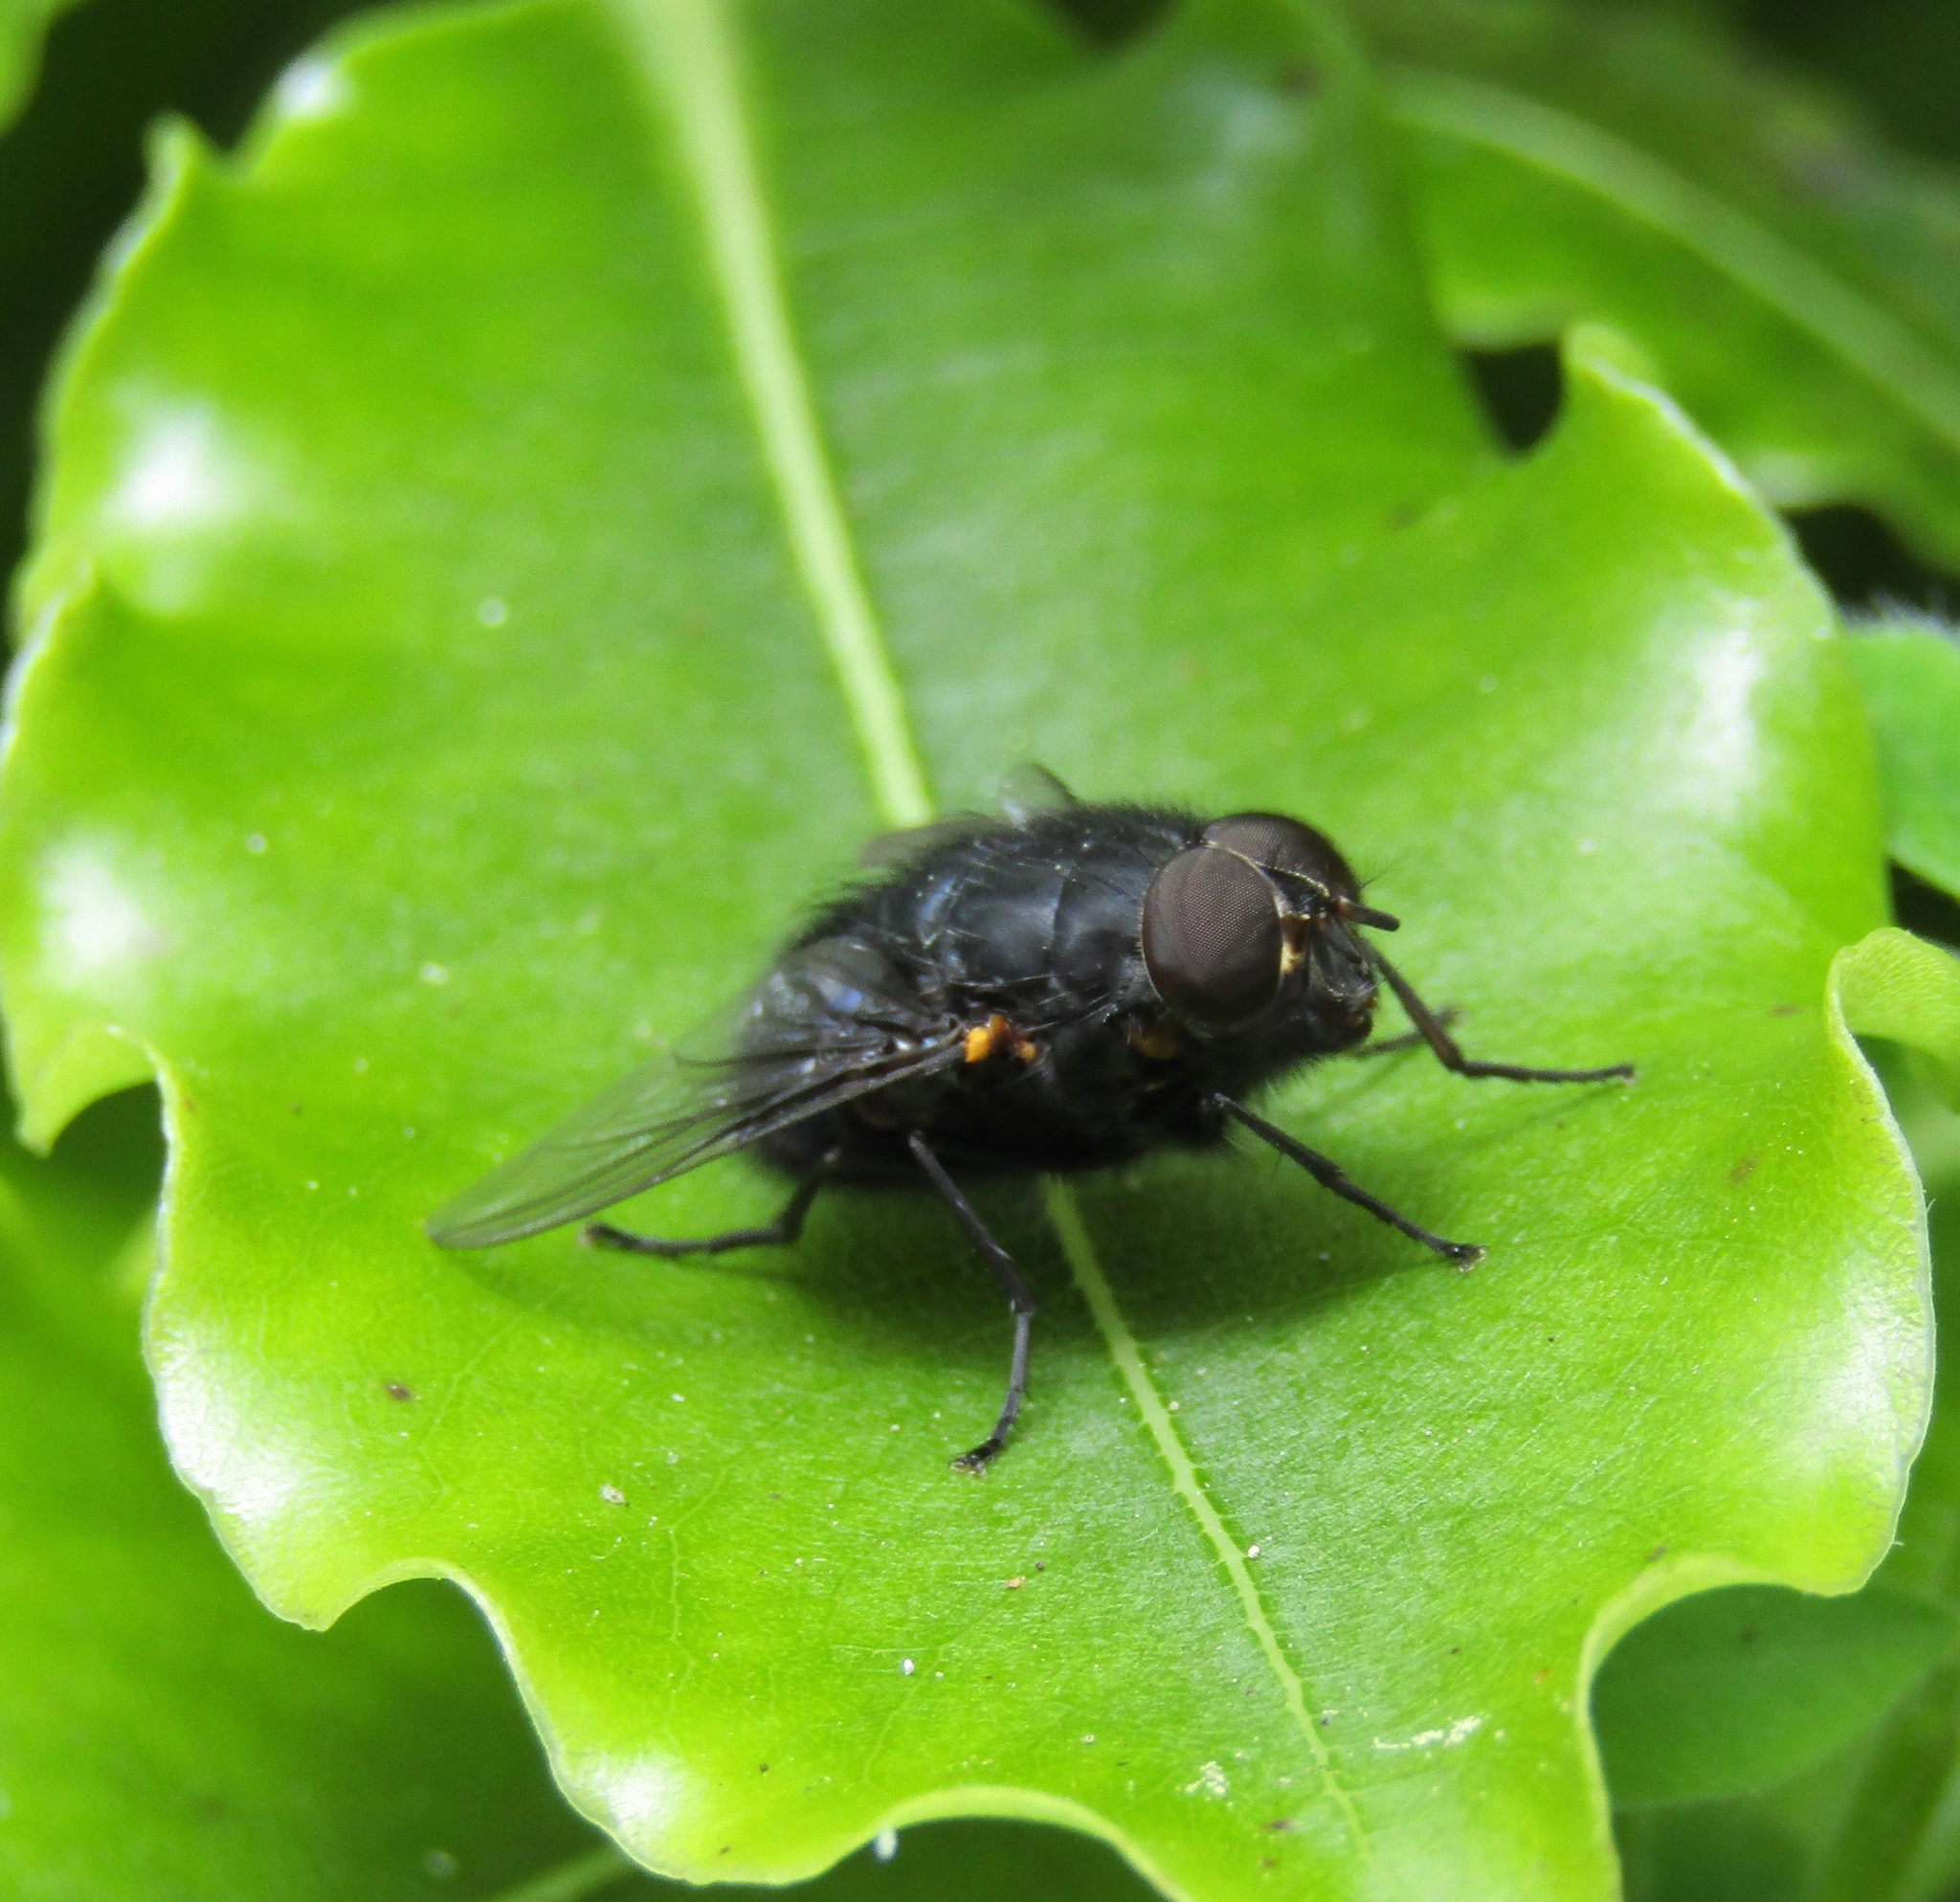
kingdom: Animalia
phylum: Arthropoda
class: Insecta
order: Diptera
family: Calliphoridae
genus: Calliphora
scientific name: Calliphora quadrimaculata
